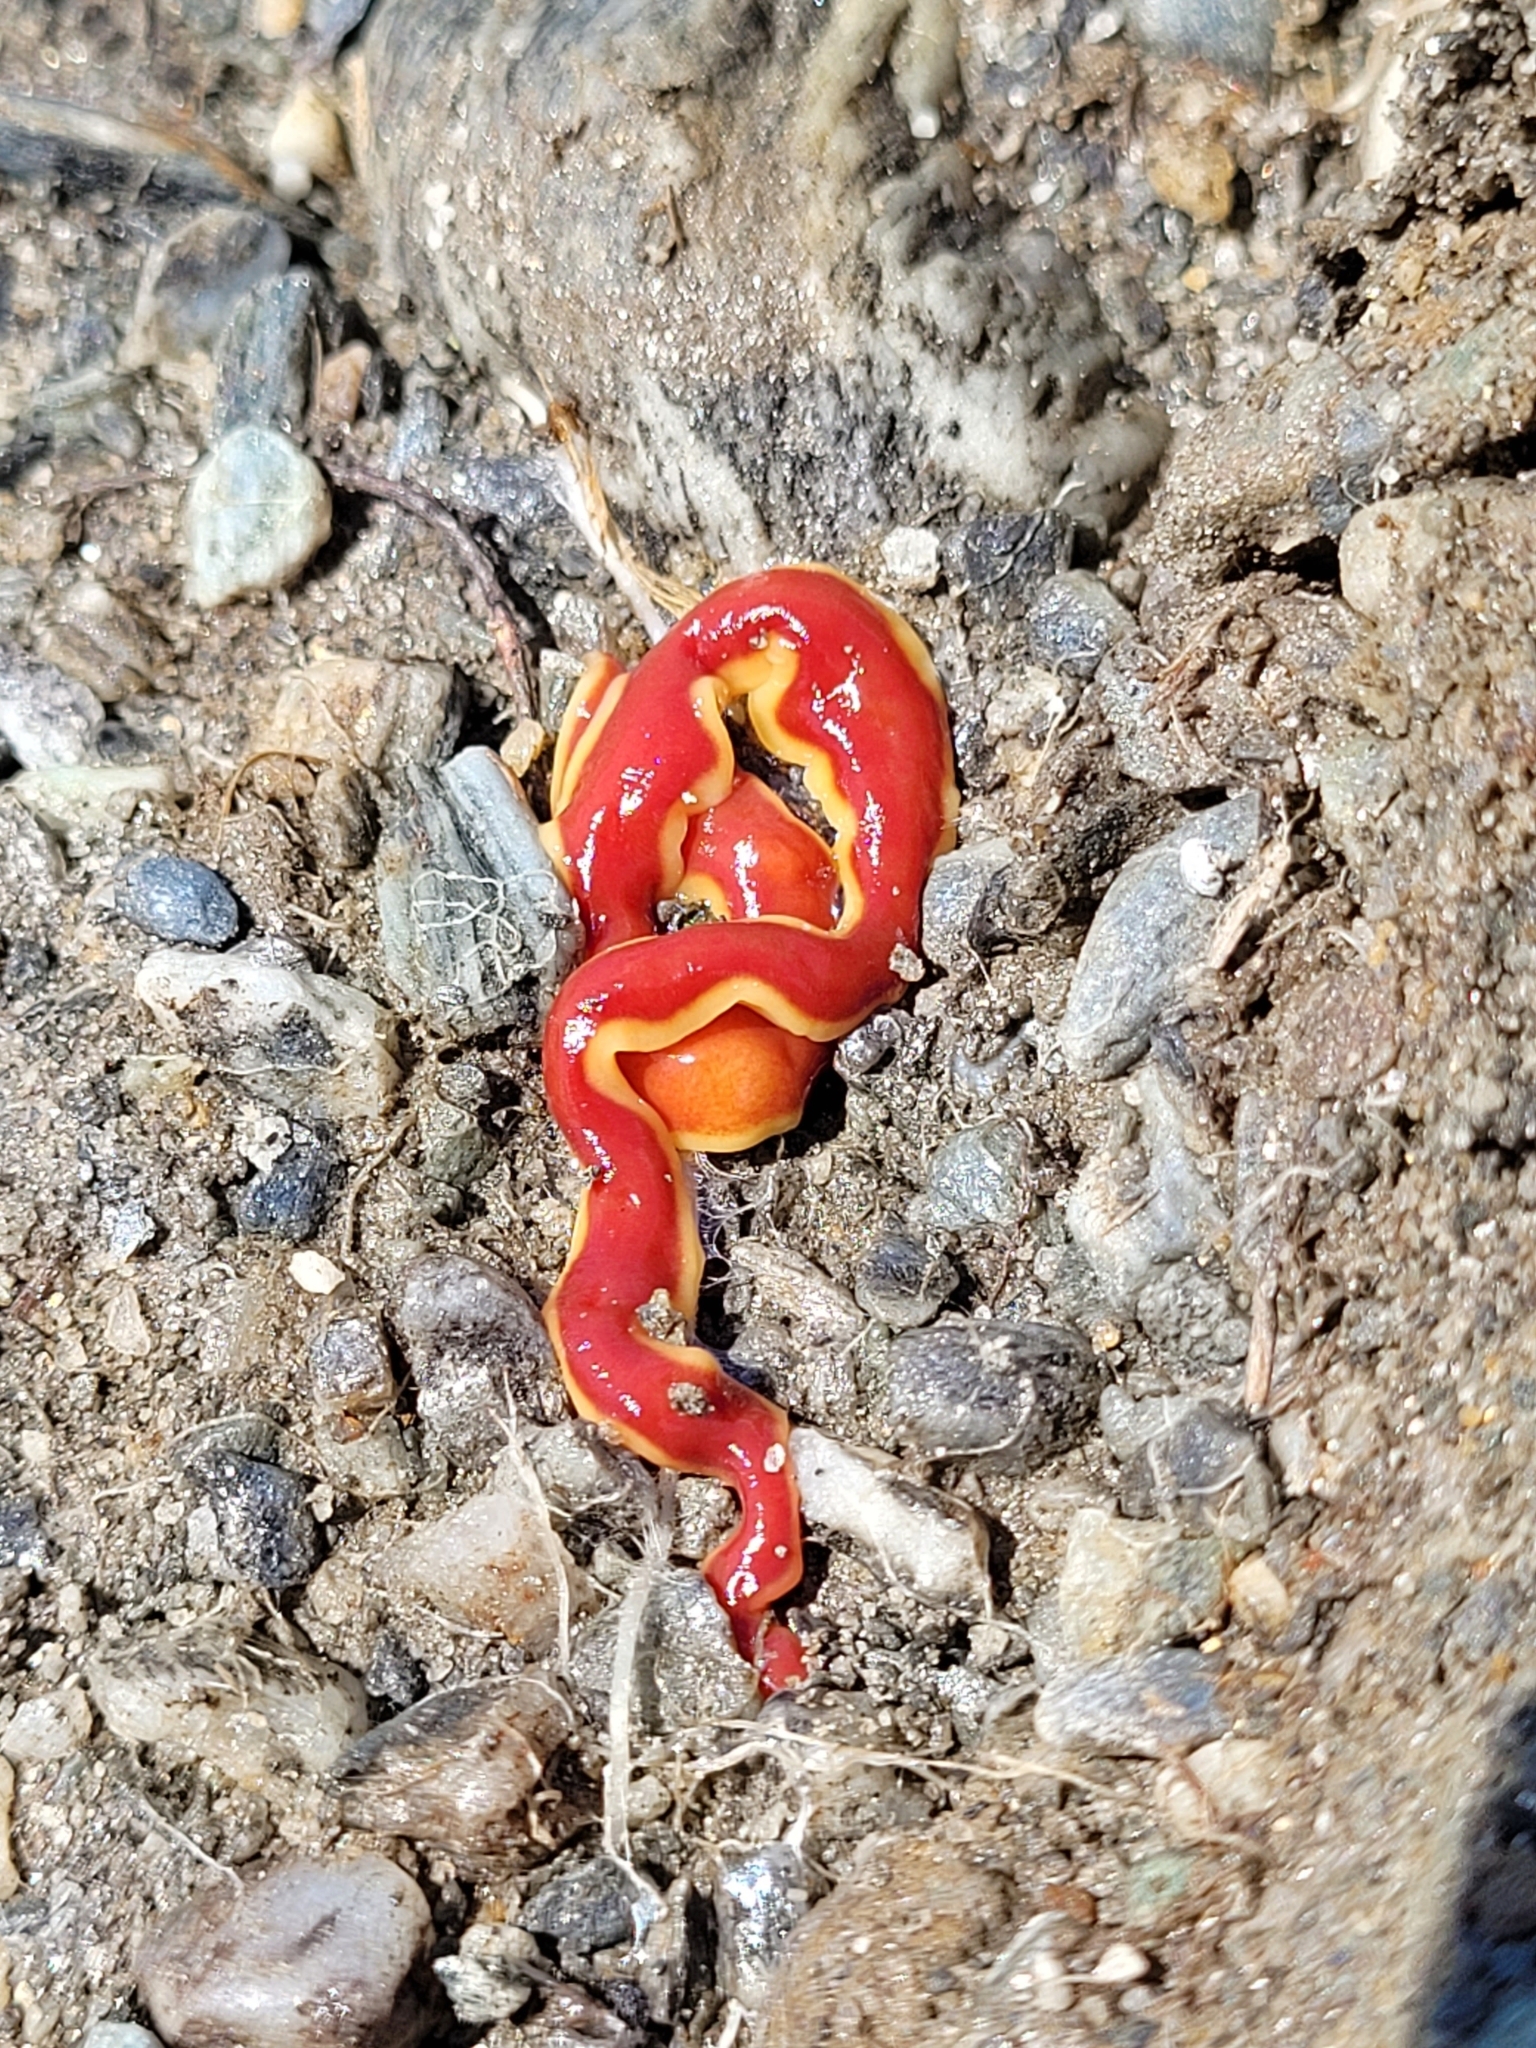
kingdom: Animalia
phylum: Platyhelminthes
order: Tricladida
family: Geoplanidae
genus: Arthurdendyus
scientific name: Arthurdendyus testaceus
